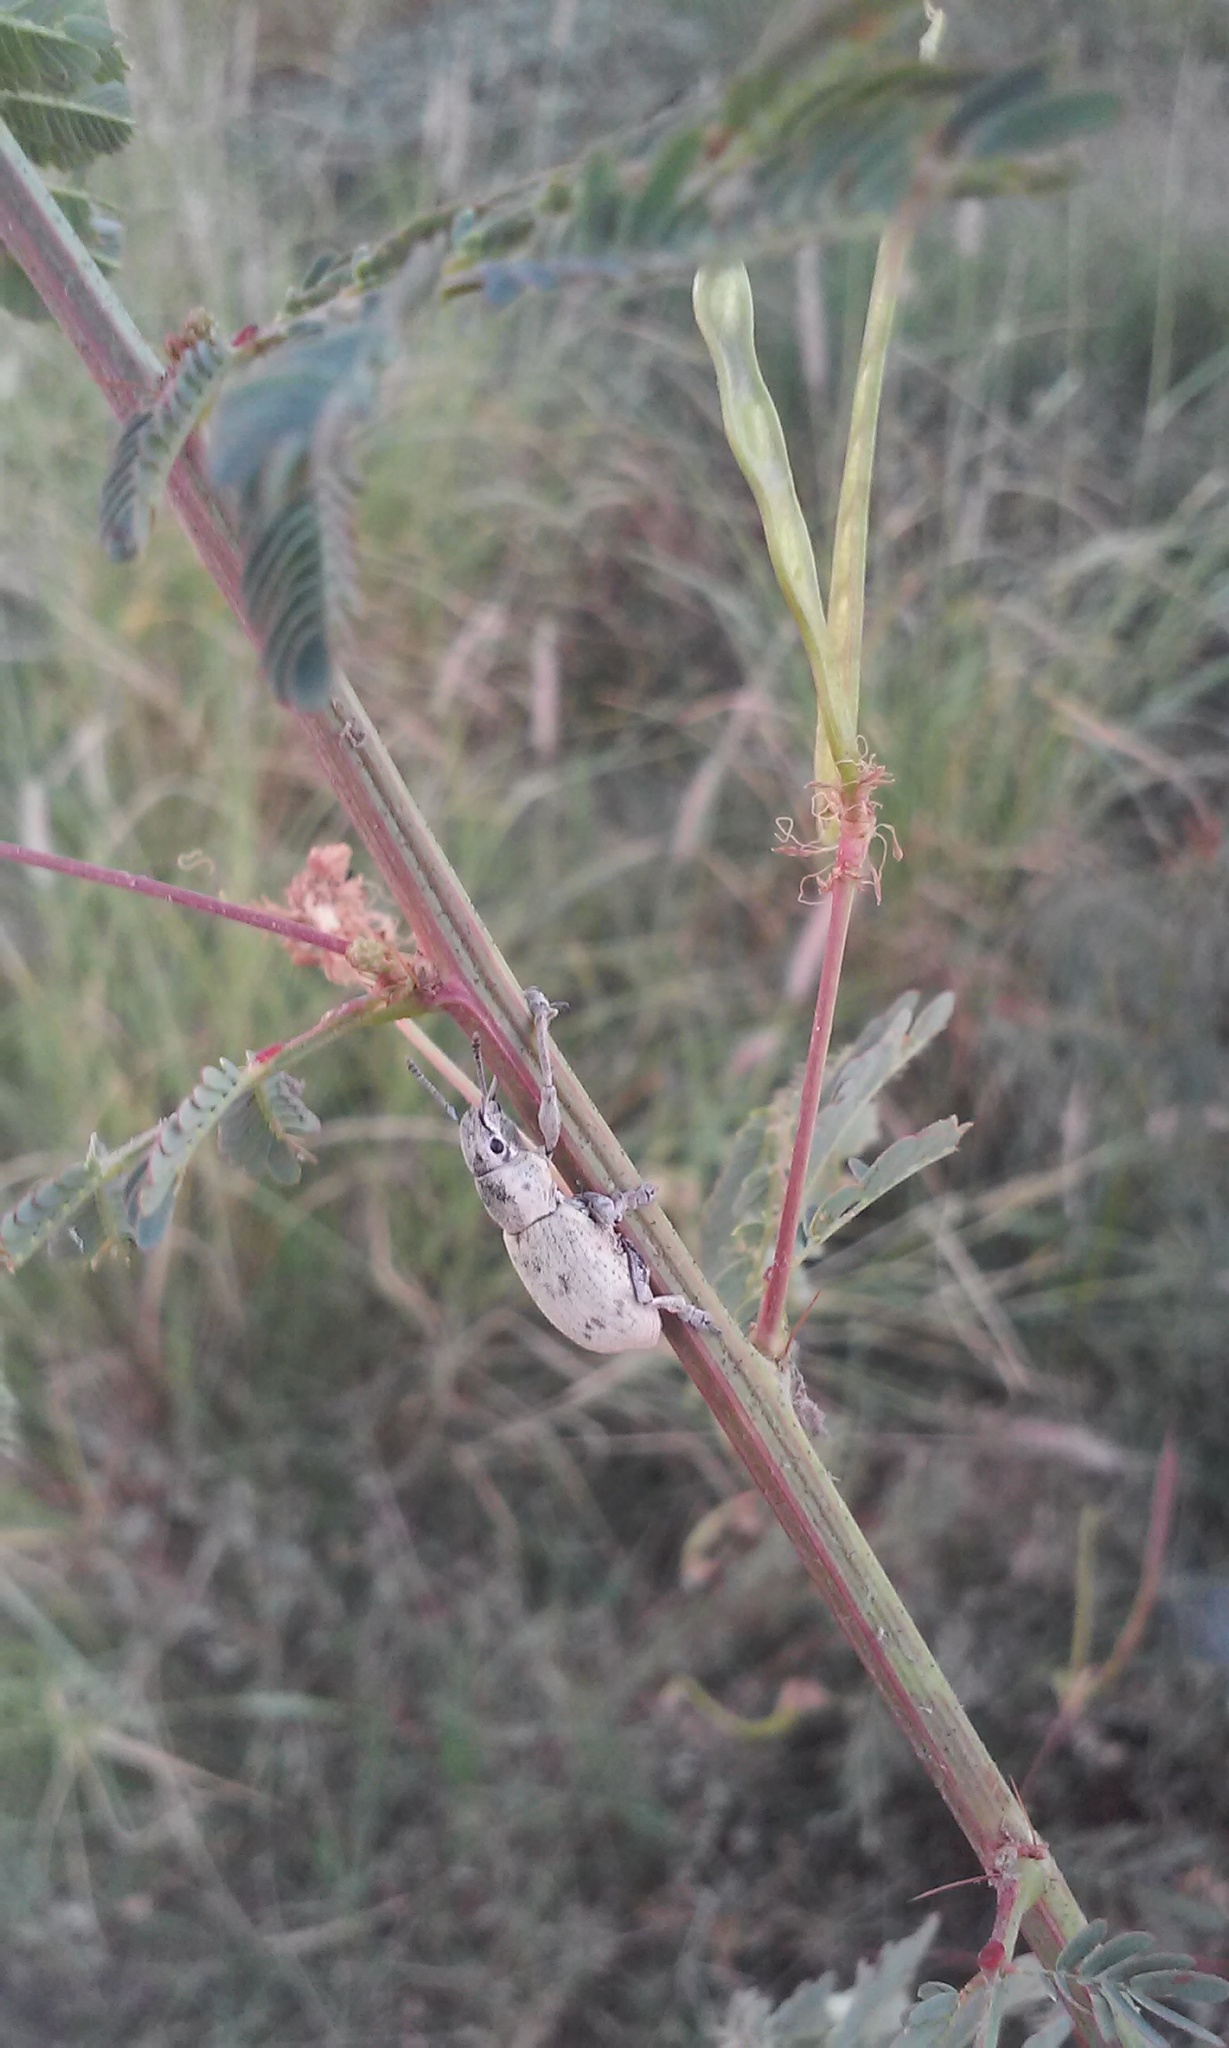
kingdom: Animalia
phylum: Arthropoda
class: Insecta
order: Coleoptera
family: Curculionidae
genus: Ericydeus
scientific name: Ericydeus lautus
